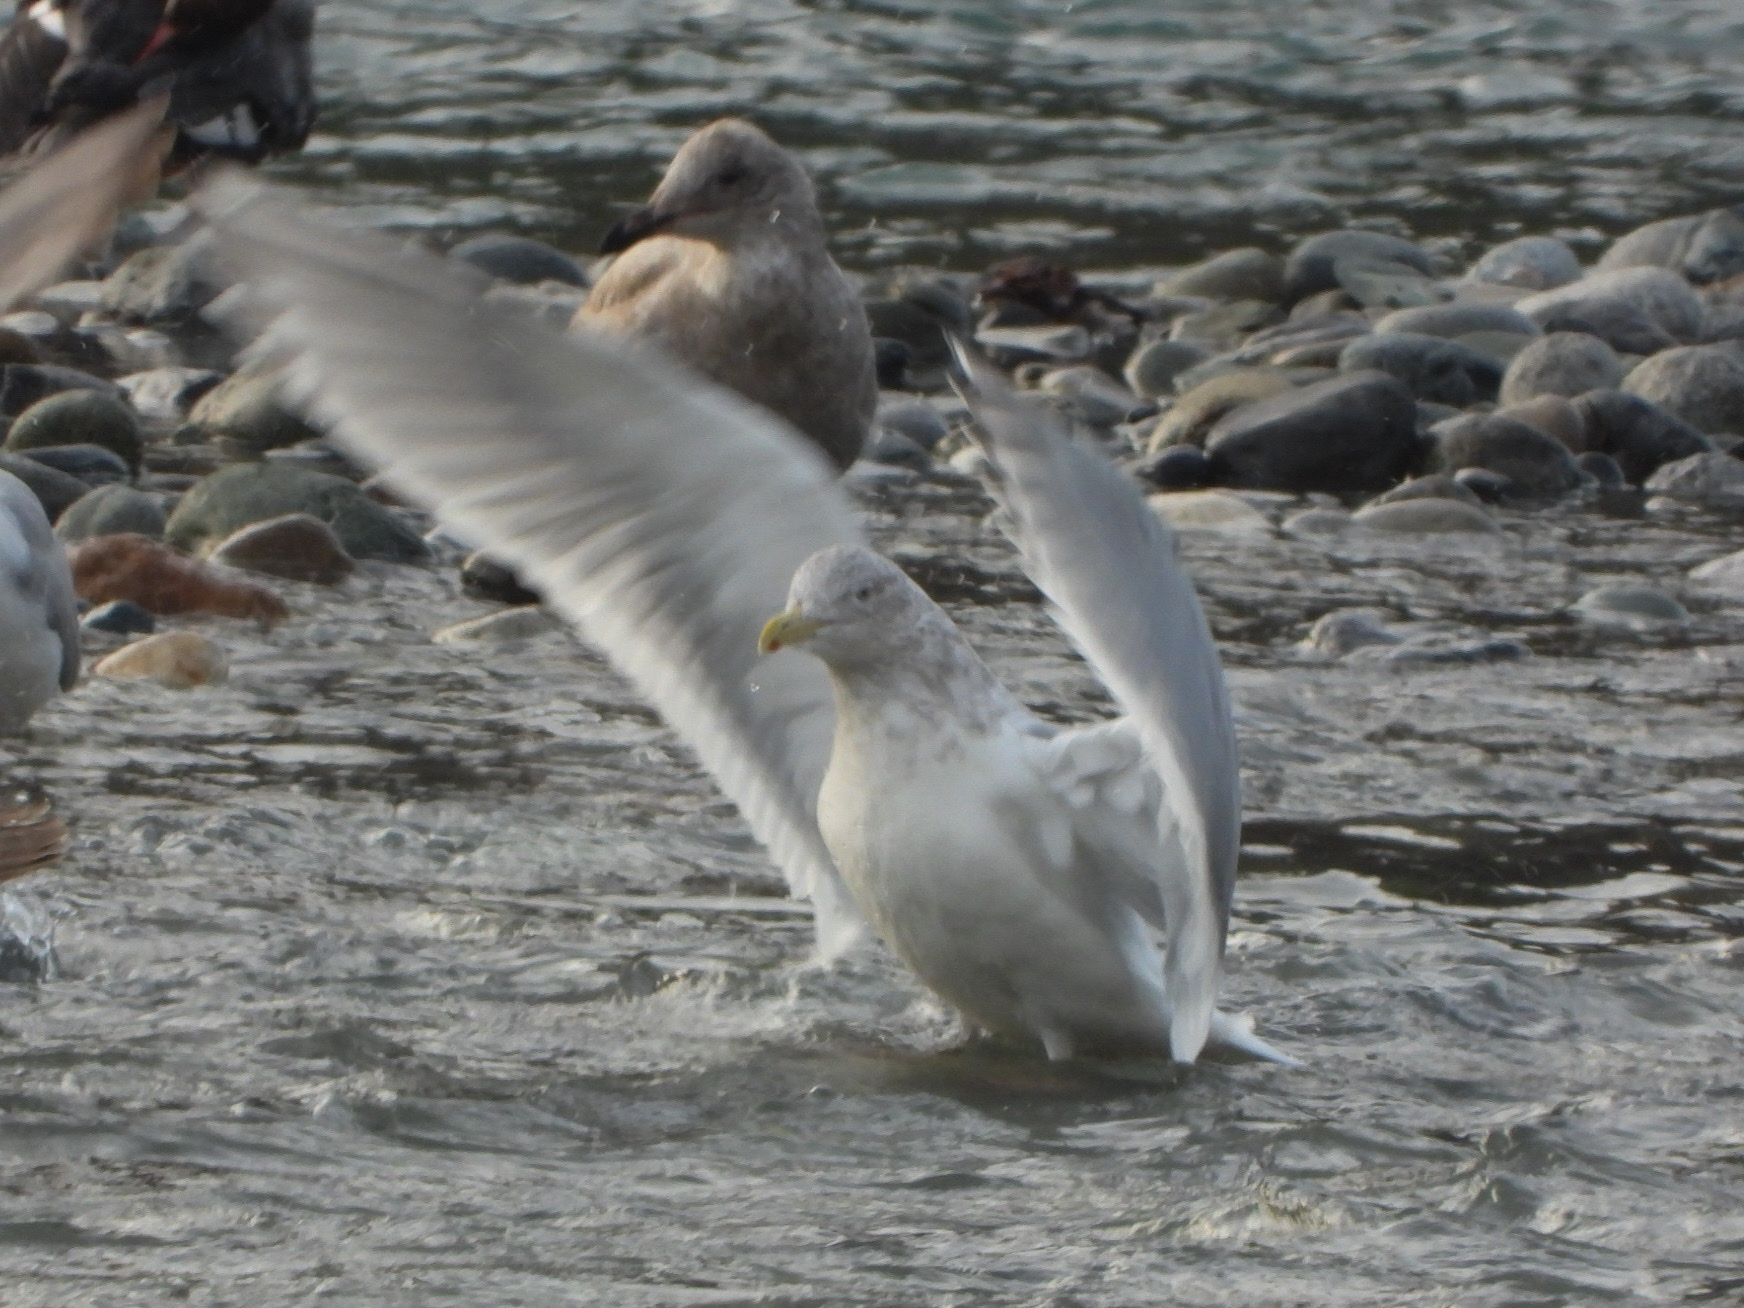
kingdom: Animalia
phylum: Chordata
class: Aves
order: Charadriiformes
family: Laridae
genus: Larus
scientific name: Larus
